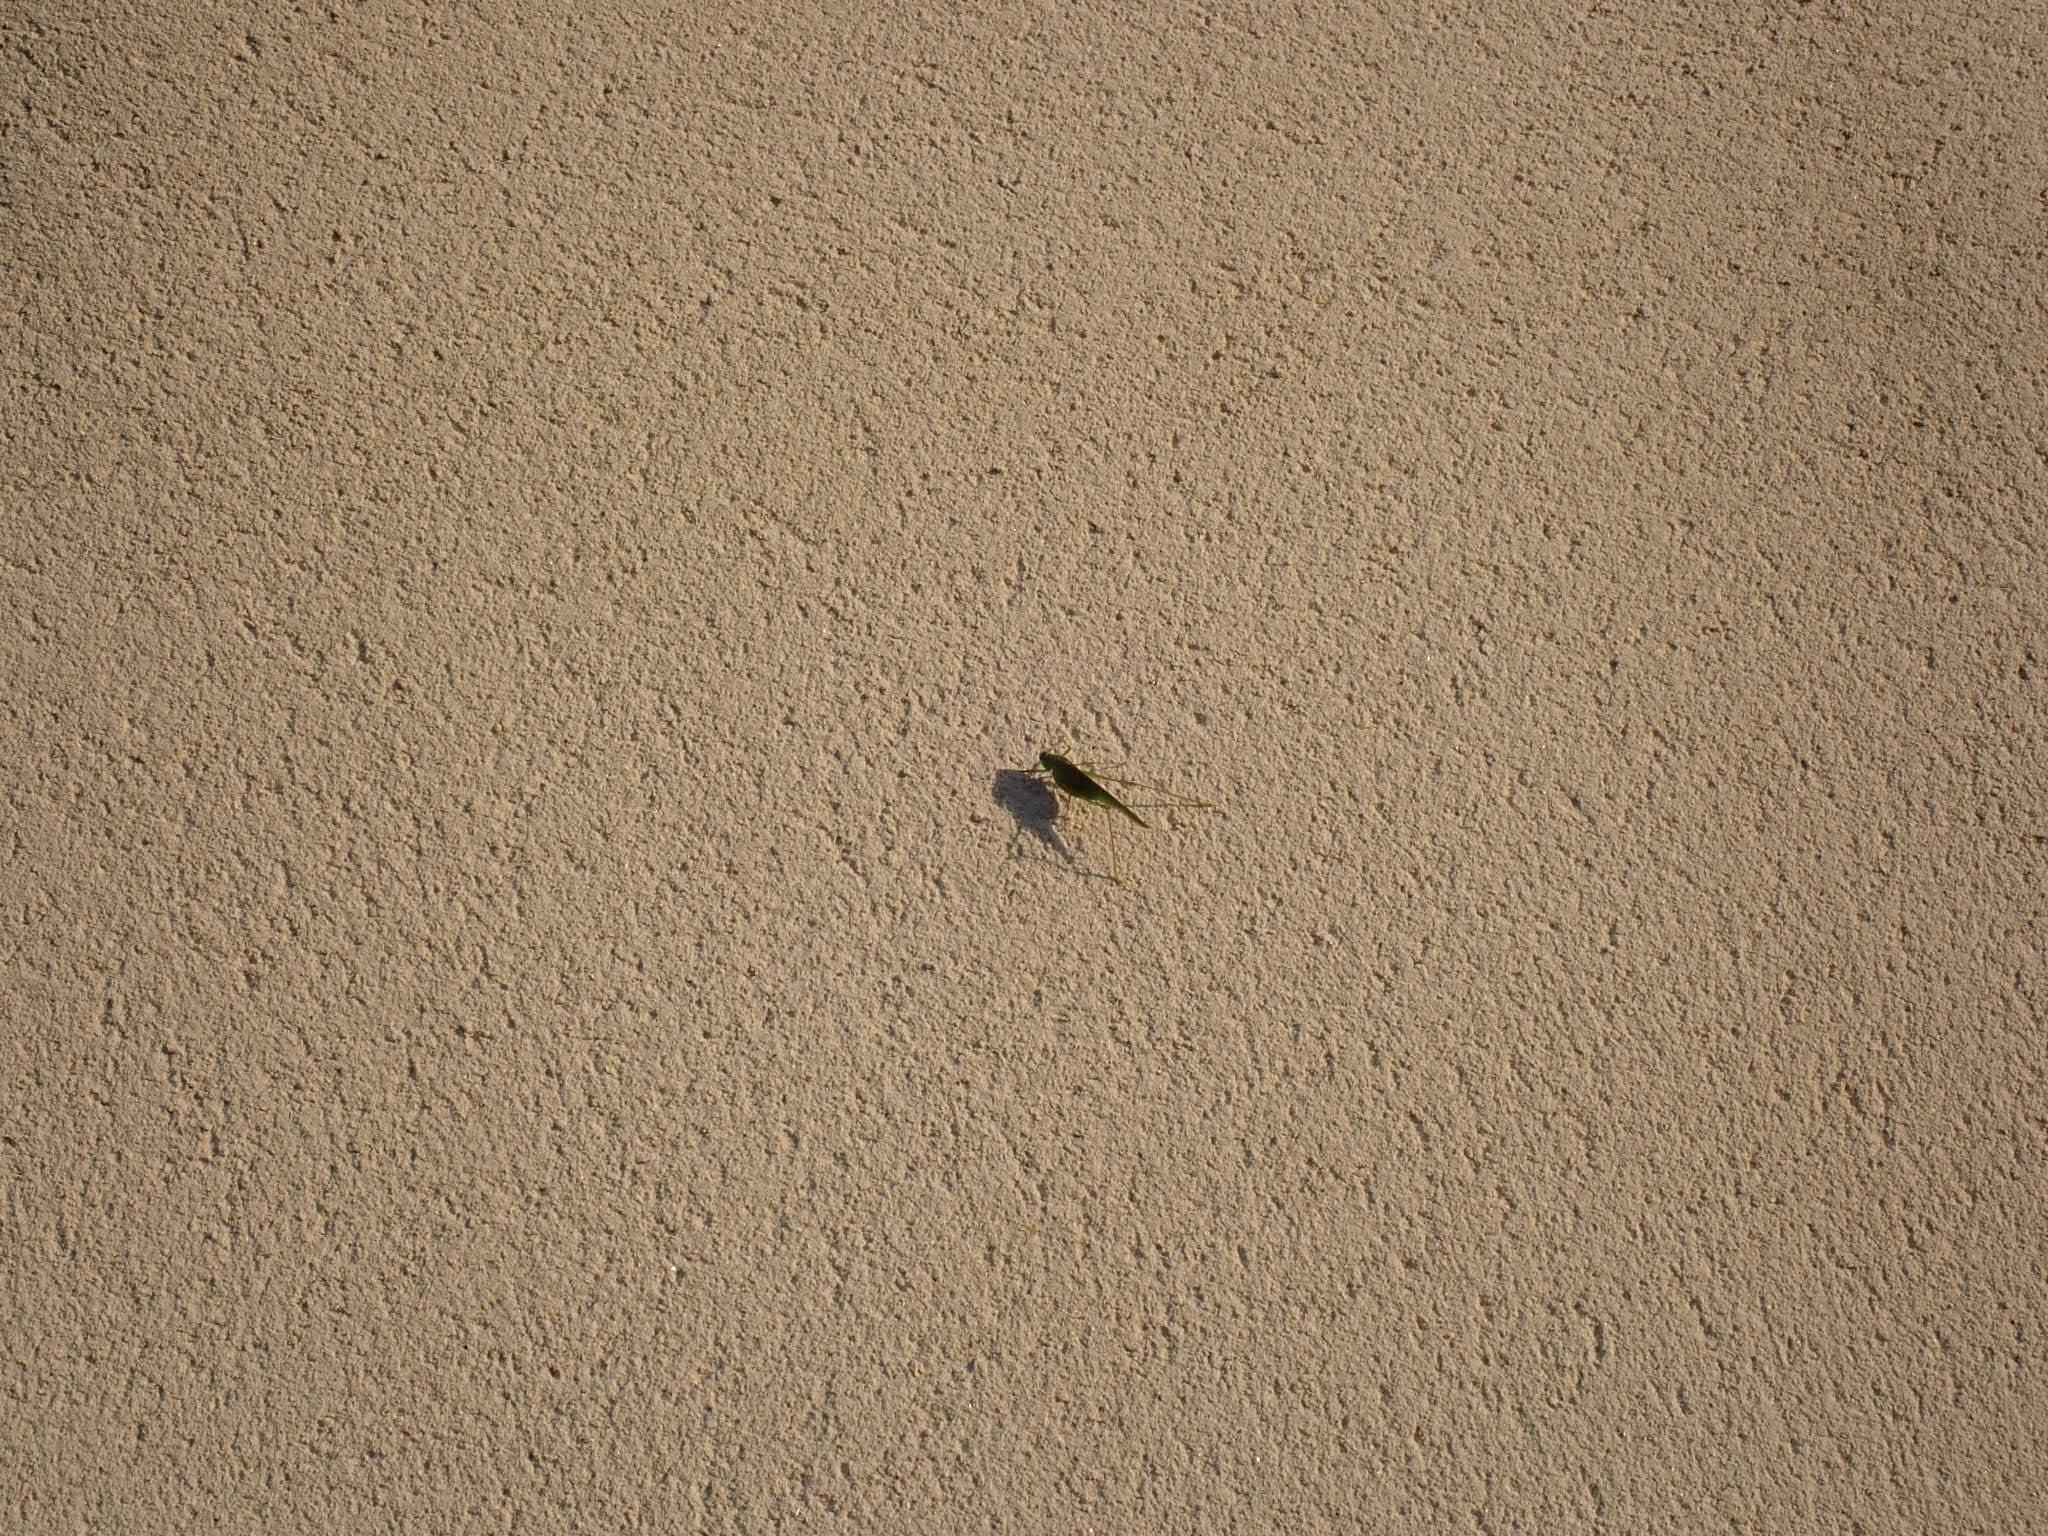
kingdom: Animalia
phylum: Arthropoda
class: Insecta
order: Orthoptera
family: Tettigoniidae
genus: Phaneroptera
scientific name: Phaneroptera nana
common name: Southern sickle bush-cricket
